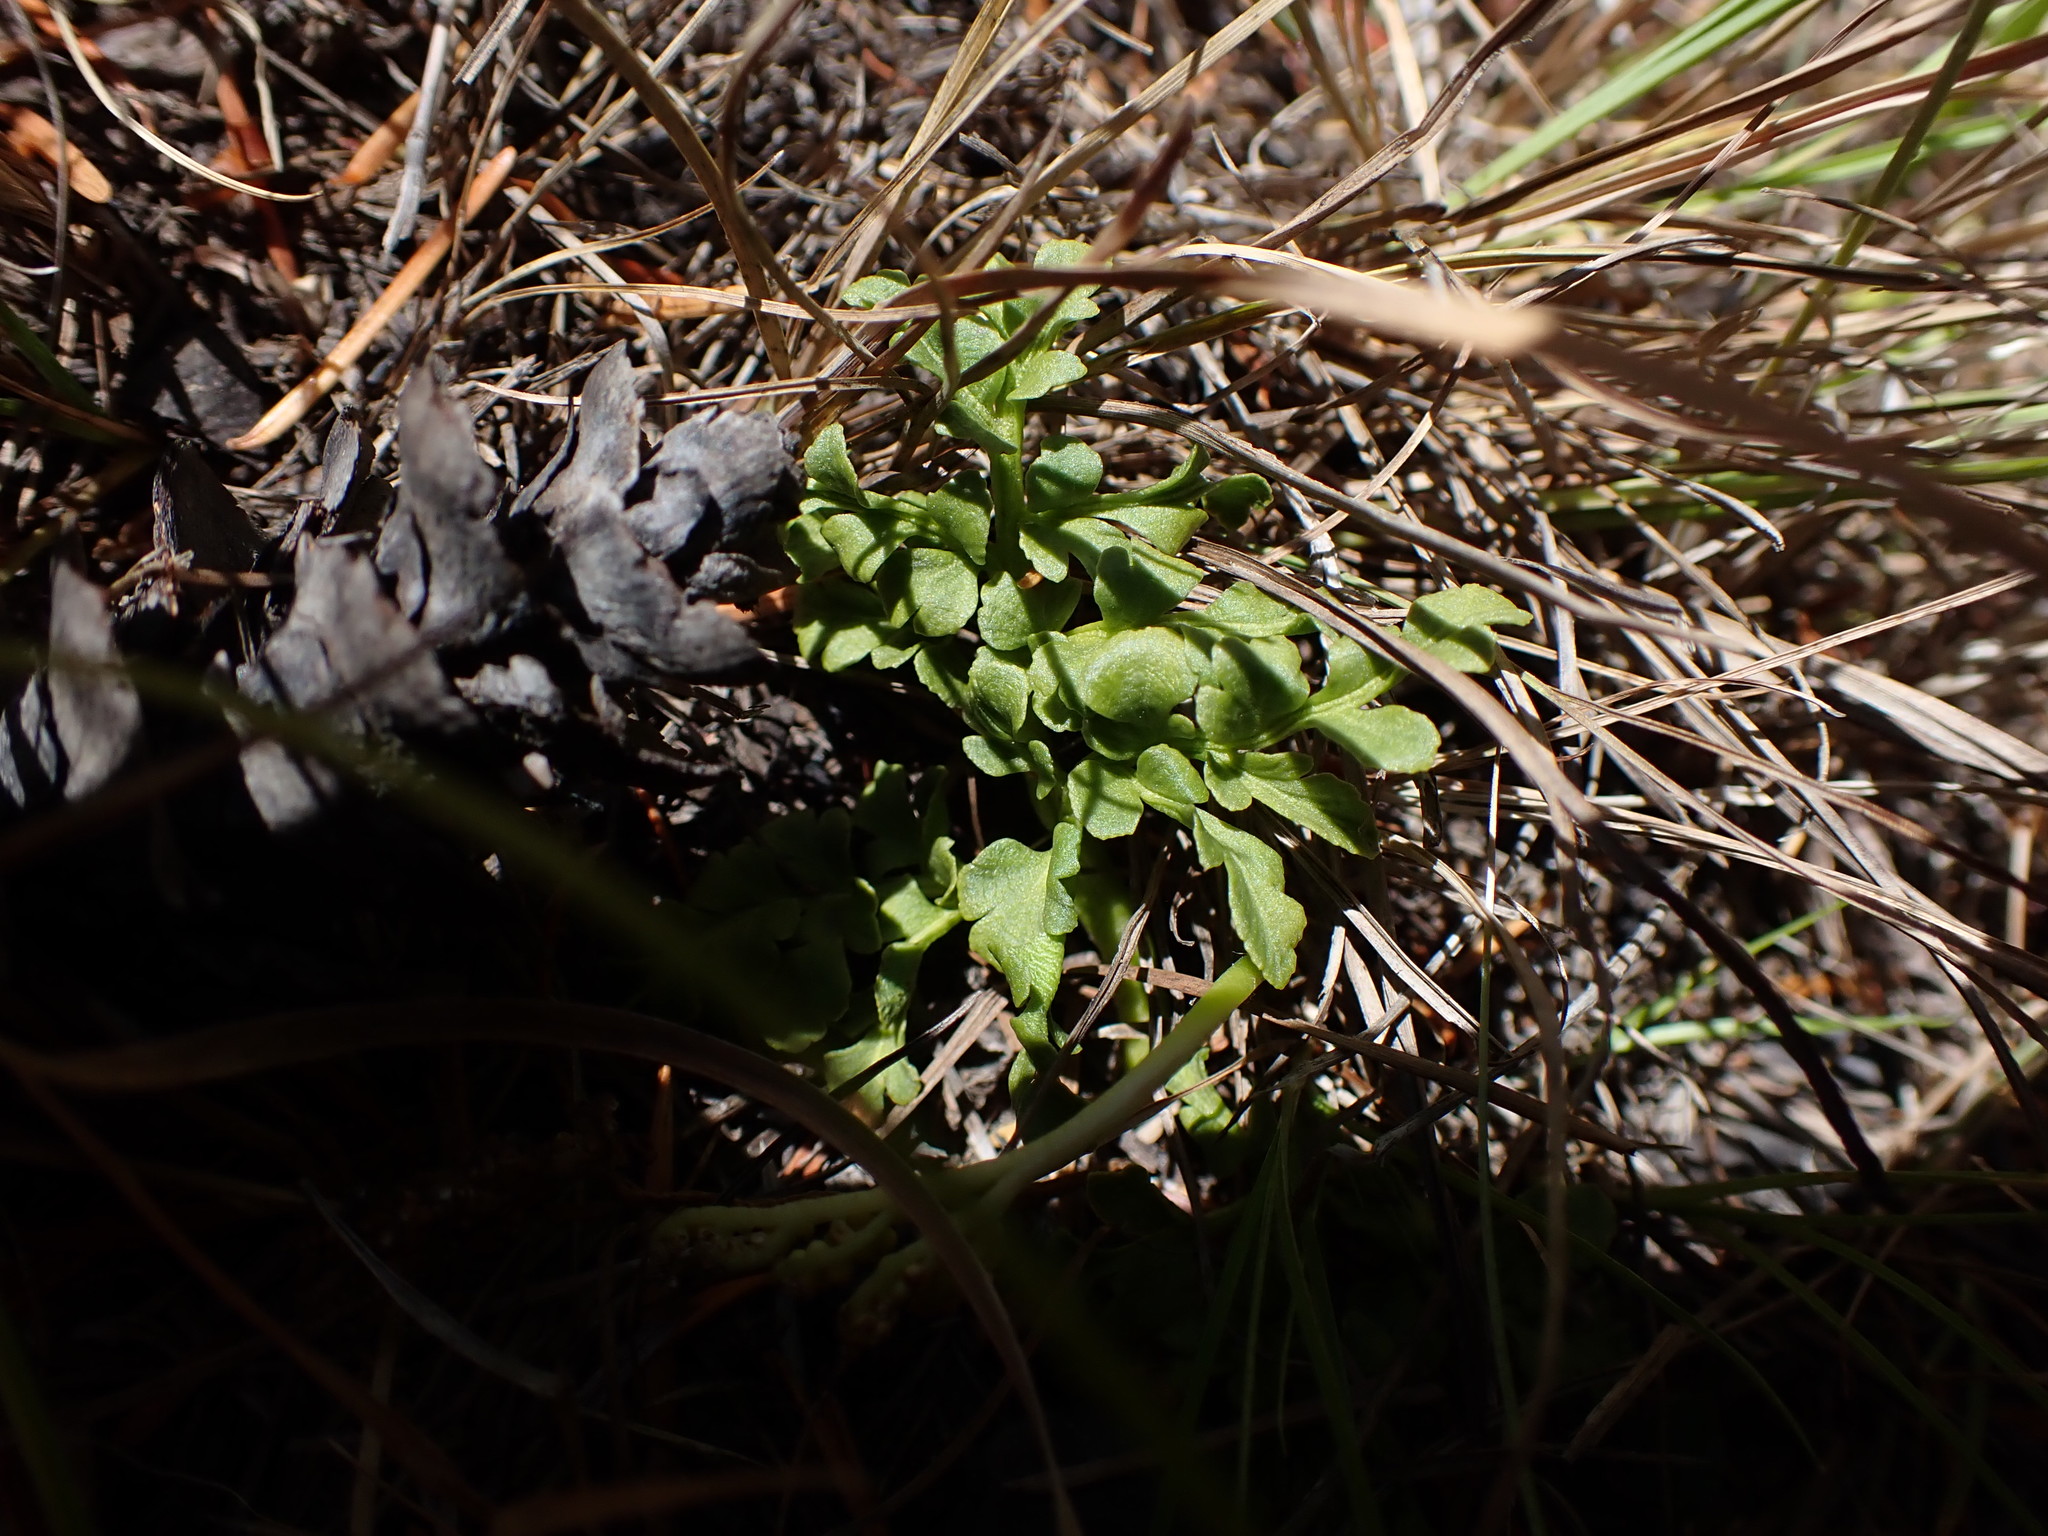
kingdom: Plantae
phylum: Tracheophyta
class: Polypodiopsida
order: Ophioglossales
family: Ophioglossaceae
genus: Sceptridium
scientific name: Sceptridium multifidum
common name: Leathery grape fern
